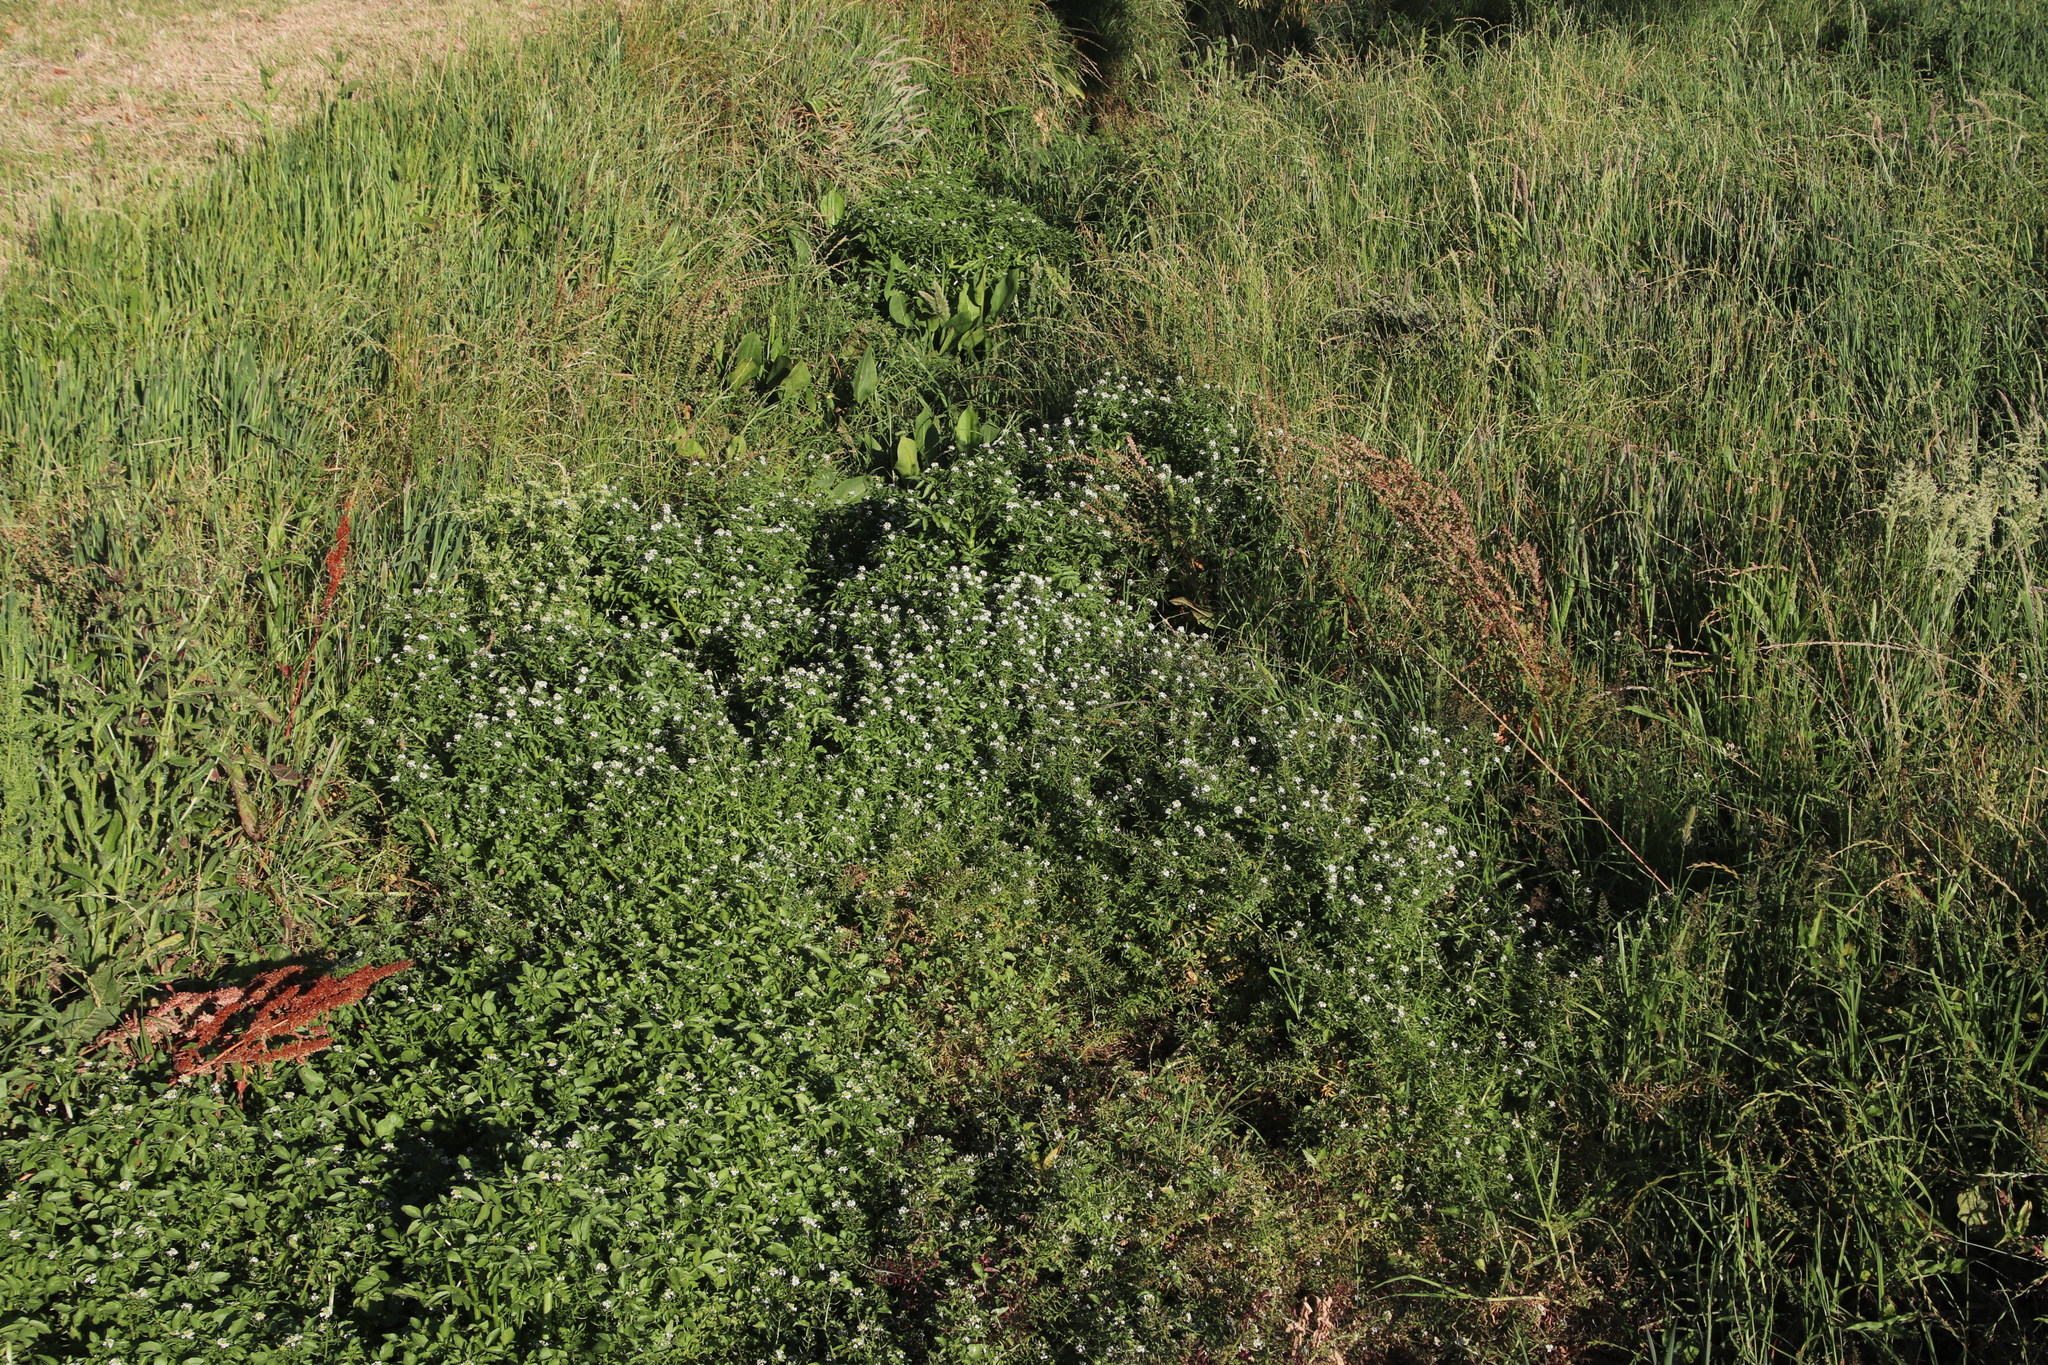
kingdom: Plantae
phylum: Tracheophyta
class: Magnoliopsida
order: Brassicales
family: Brassicaceae
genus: Nasturtium
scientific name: Nasturtium officinale
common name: Watercress
